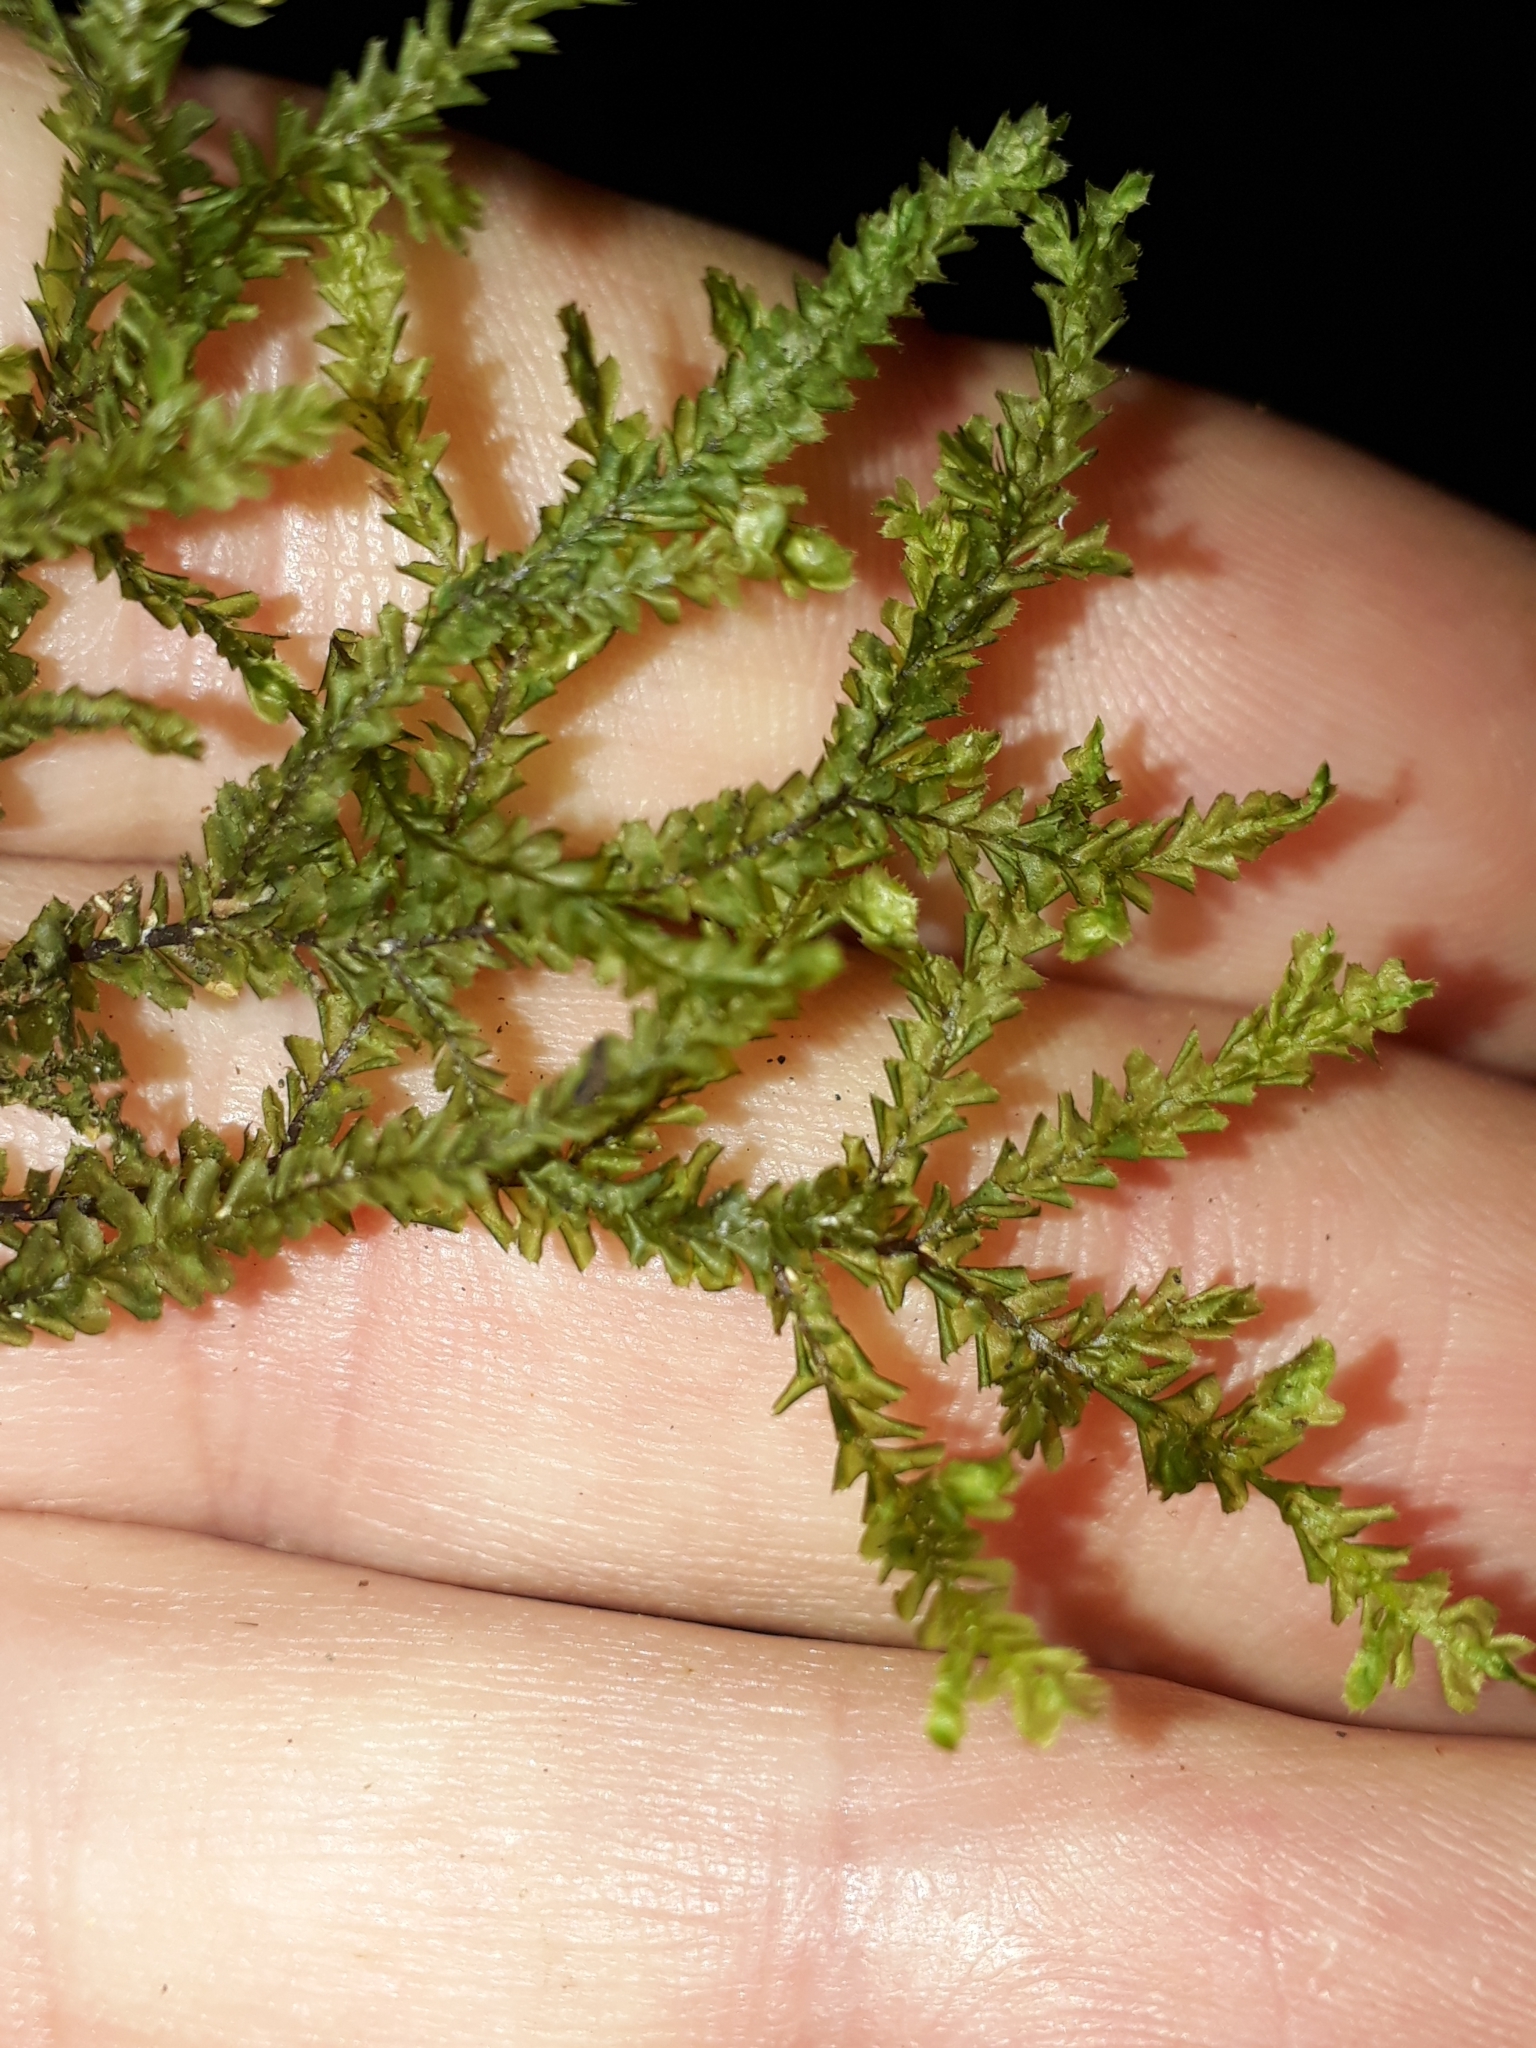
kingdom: Plantae
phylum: Marchantiophyta
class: Jungermanniopsida
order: Jungermanniales
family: Plagiochilaceae
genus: Plagiochila
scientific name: Plagiochila stephensoniana
